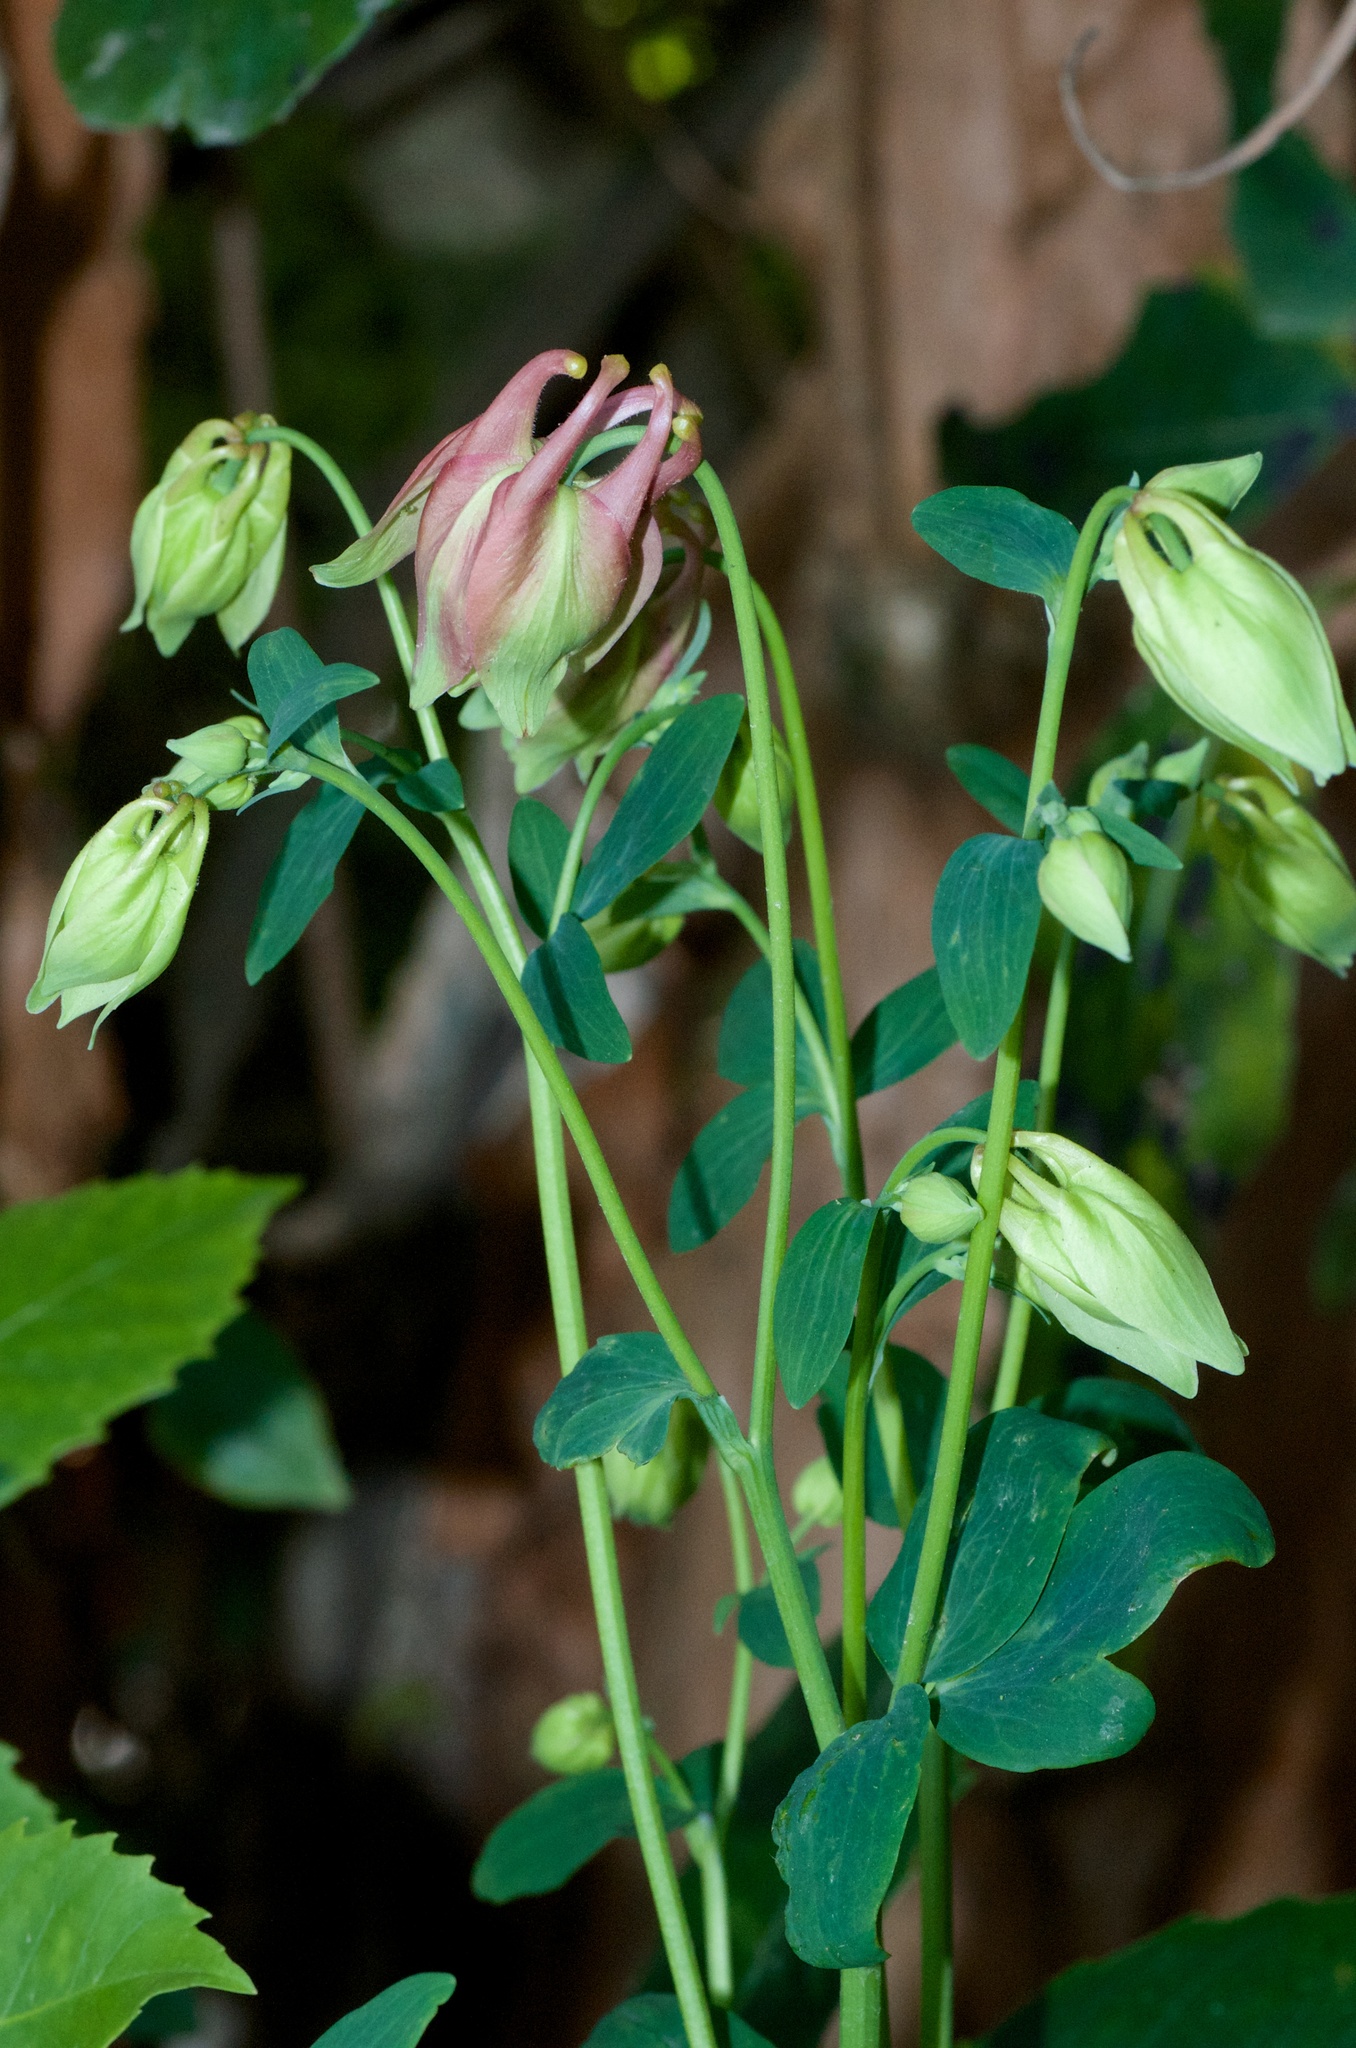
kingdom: Plantae
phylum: Tracheophyta
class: Magnoliopsida
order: Ranunculales
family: Ranunculaceae
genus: Aquilegia
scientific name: Aquilegia vulgaris
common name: Columbine
